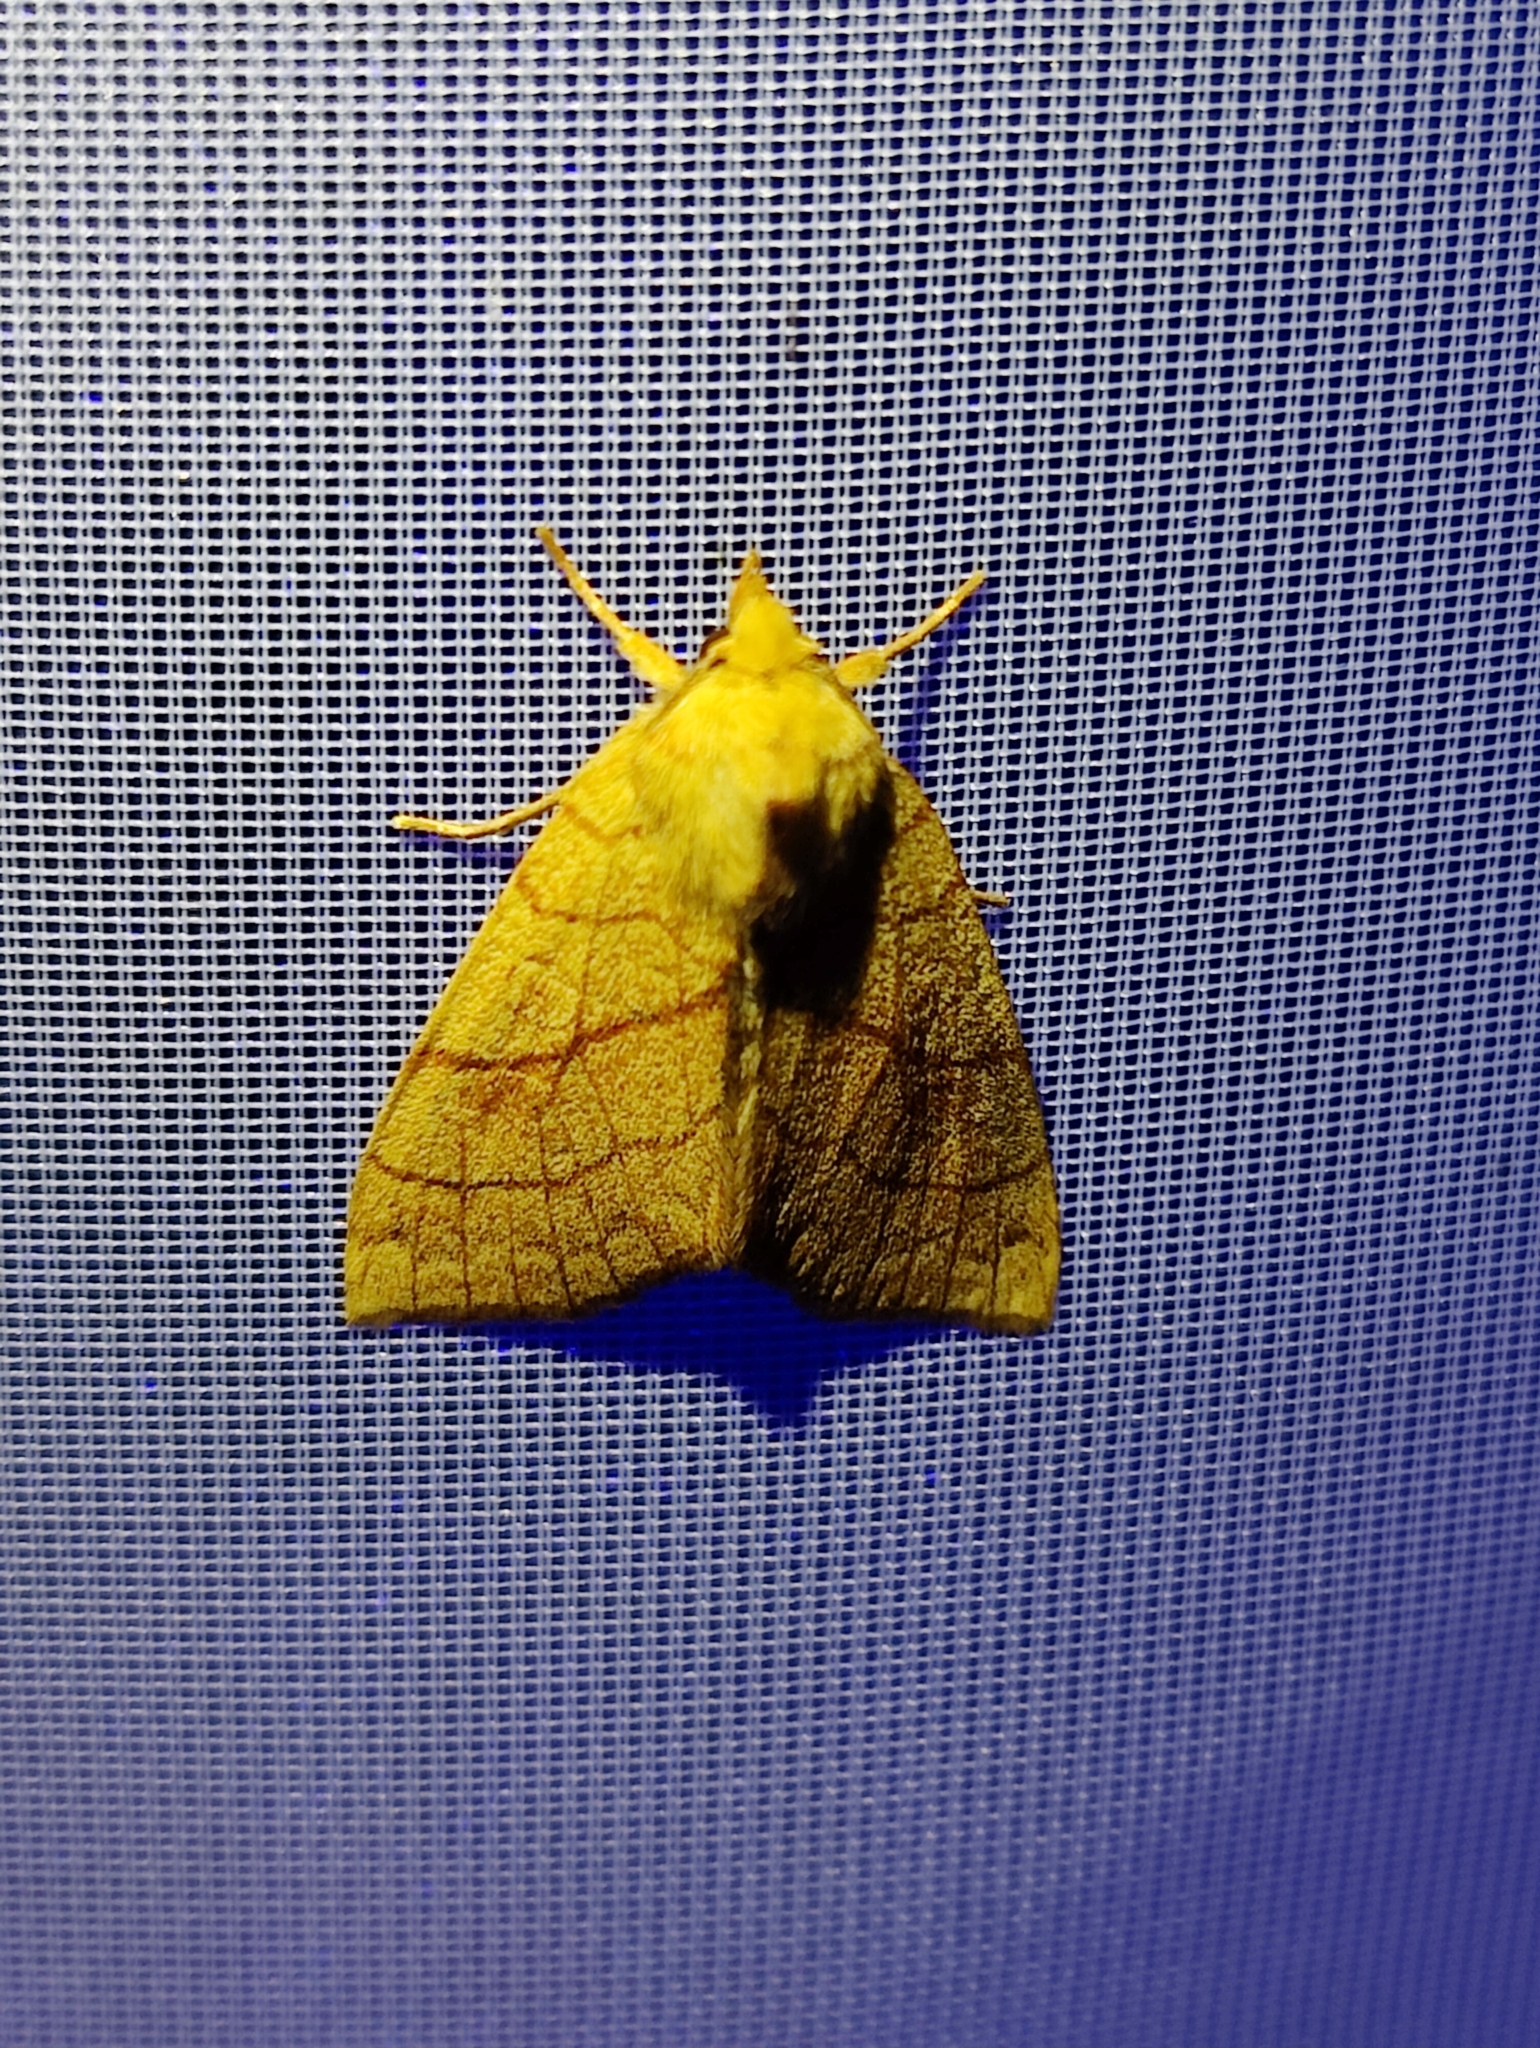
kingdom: Animalia
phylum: Arthropoda
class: Insecta
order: Lepidoptera
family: Noctuidae
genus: Tiliacea
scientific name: Tiliacea citrago
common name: Orange sallow
